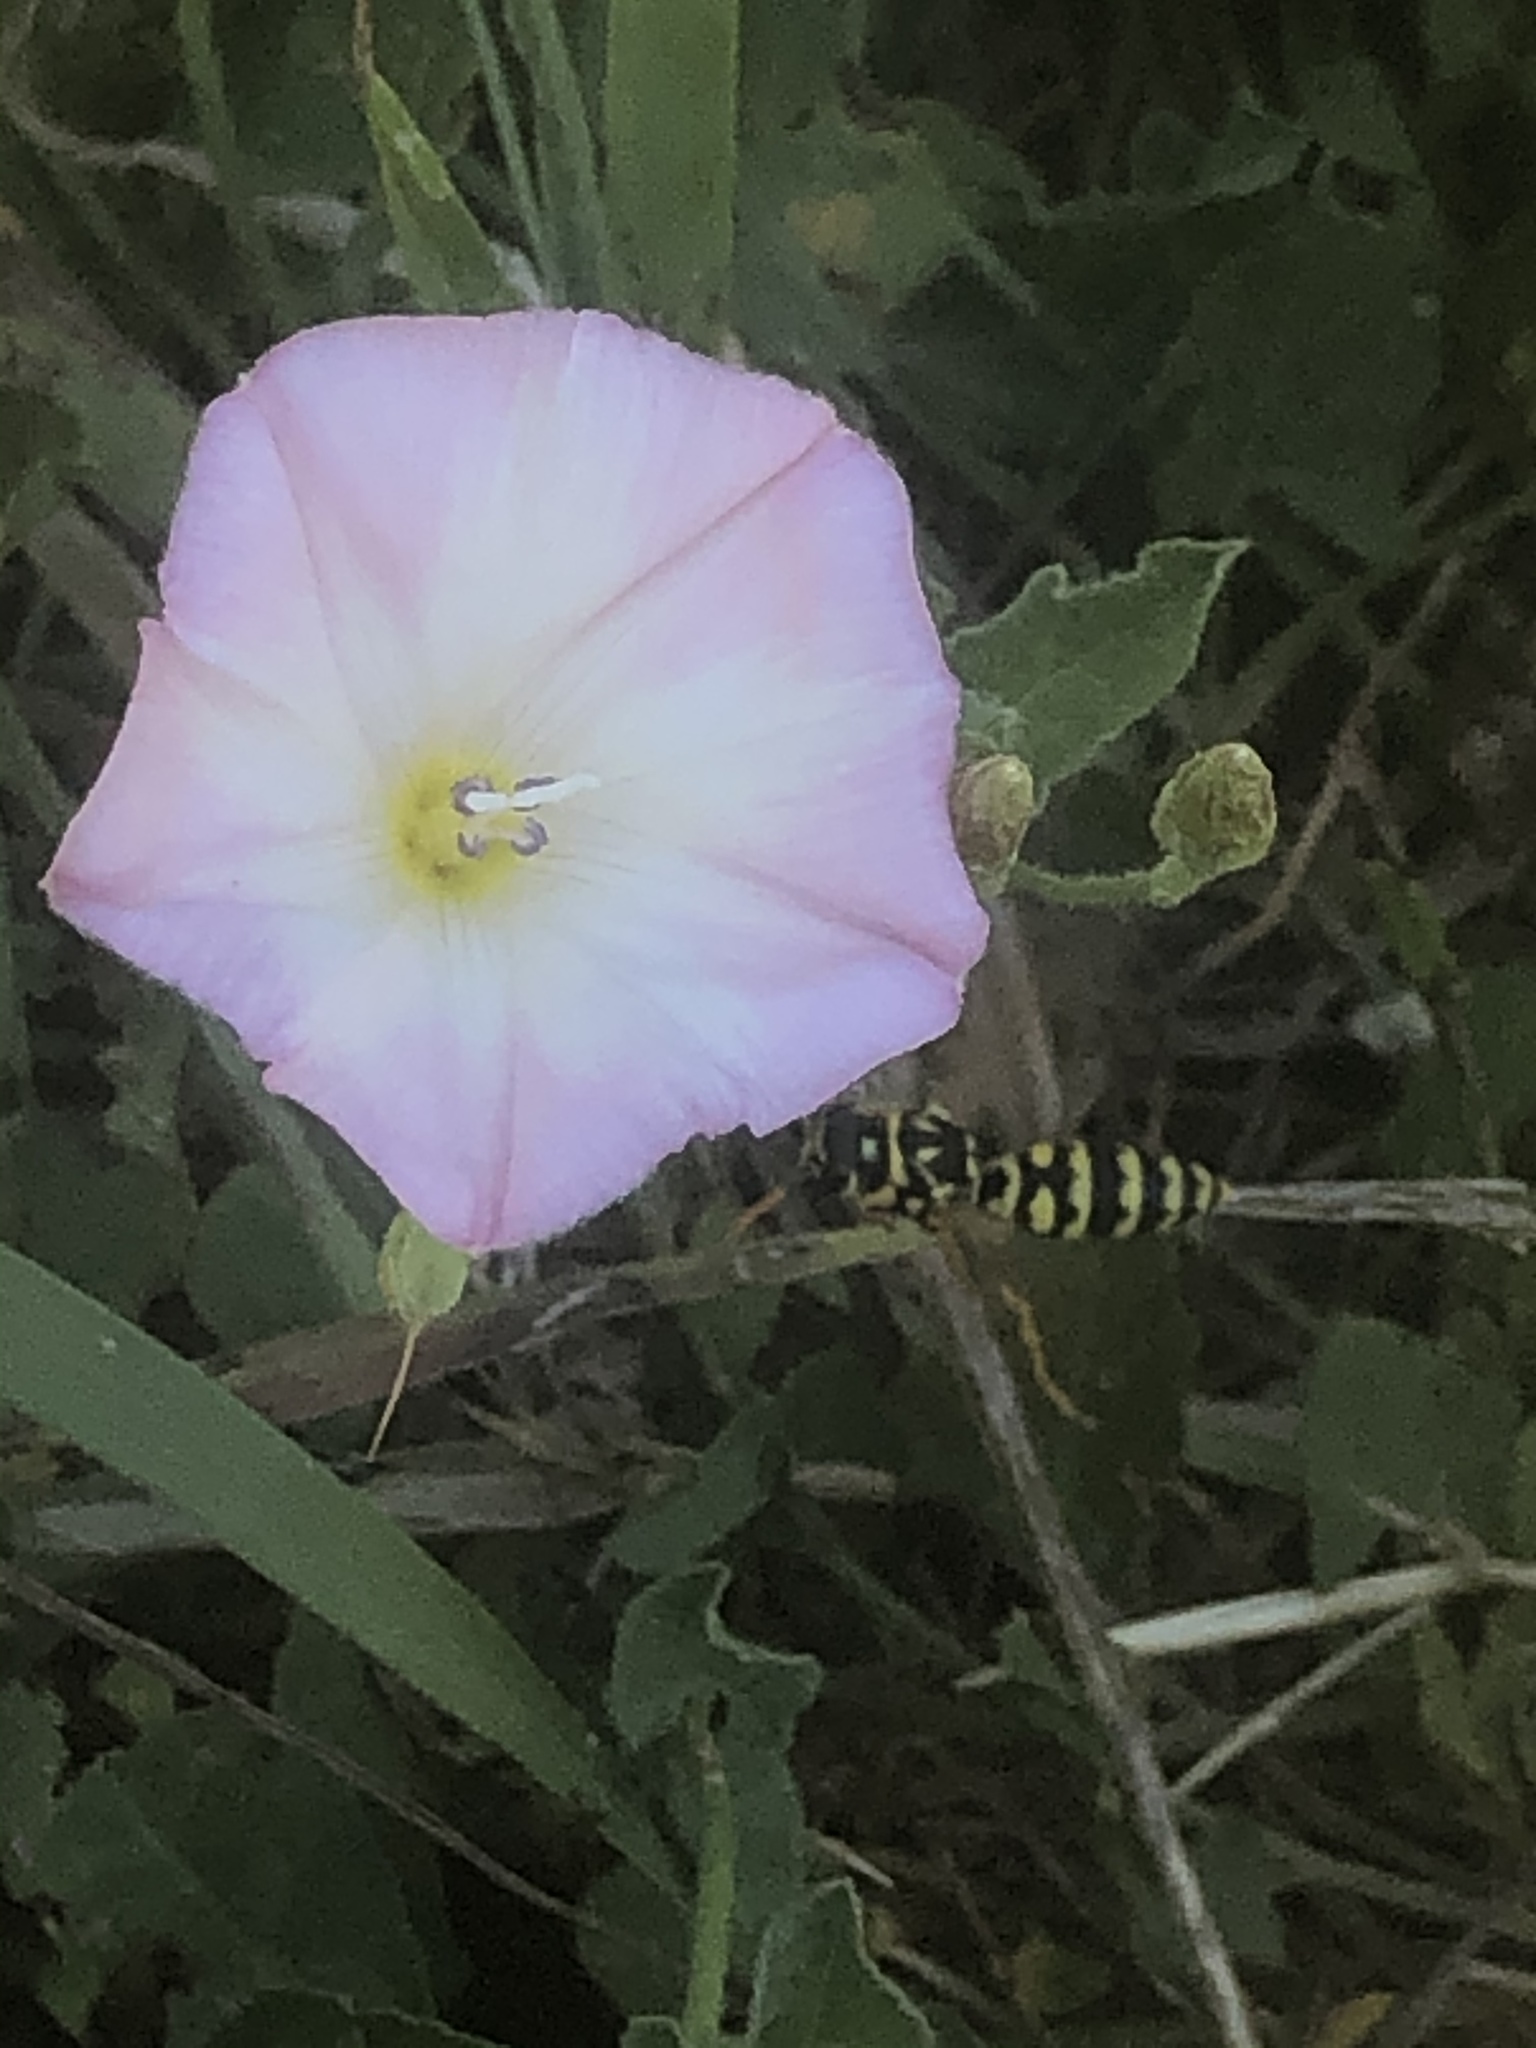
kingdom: Plantae
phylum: Tracheophyta
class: Magnoliopsida
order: Solanales
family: Convolvulaceae
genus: Convolvulus
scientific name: Convolvulus arvensis
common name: Field bindweed
